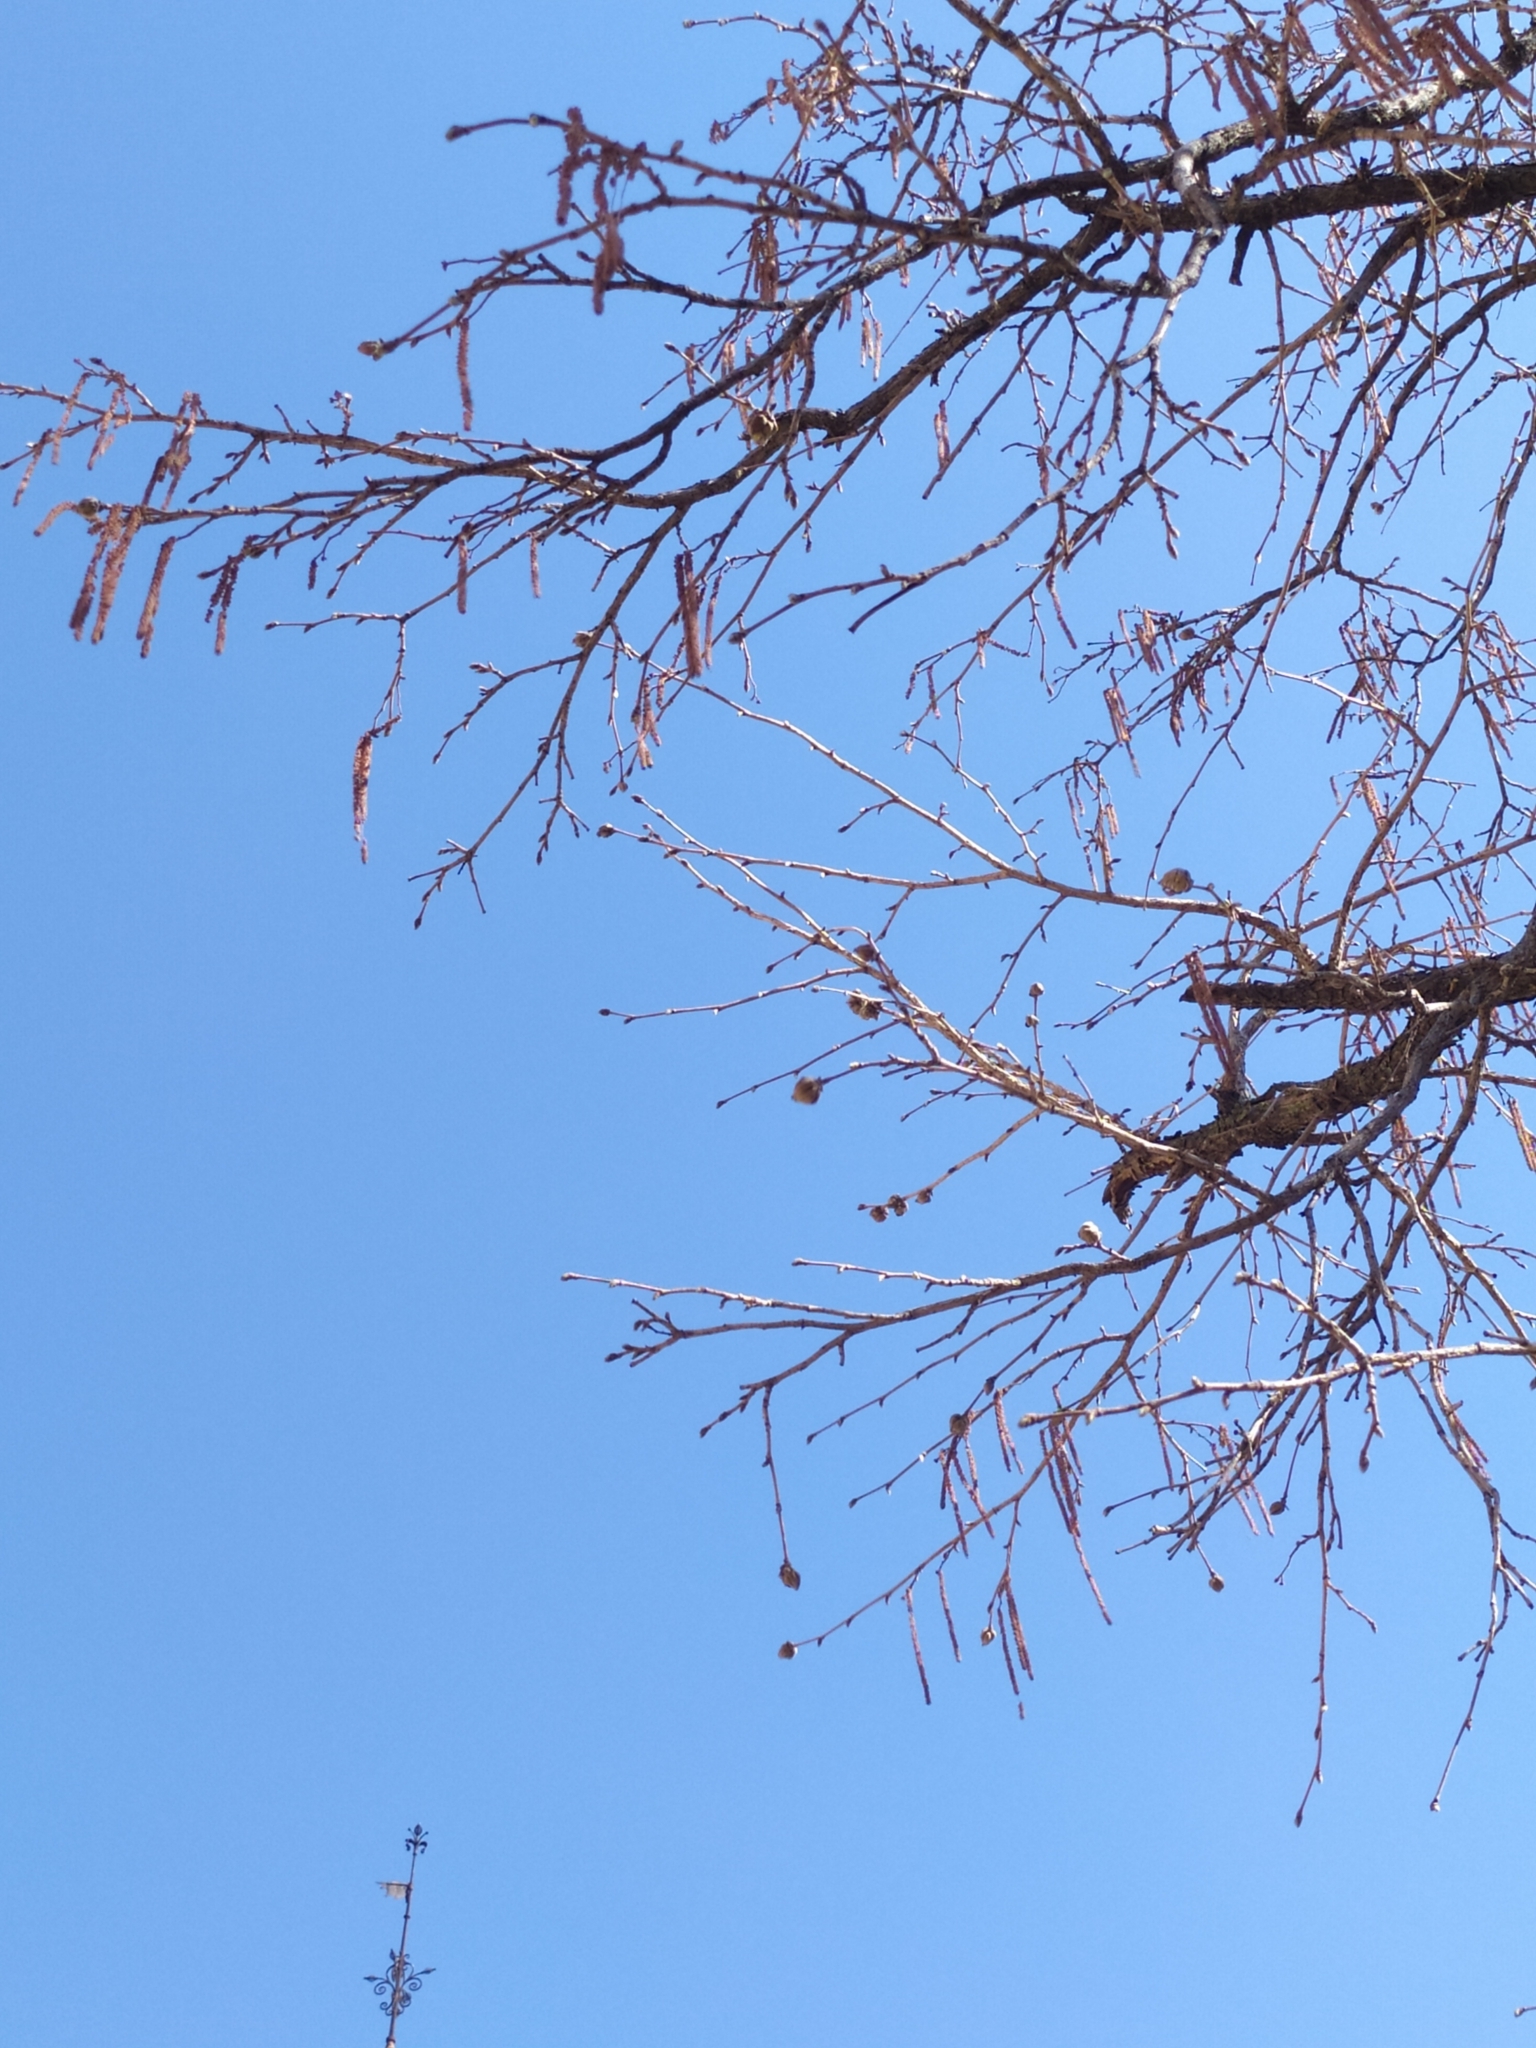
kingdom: Animalia
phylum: Arthropoda
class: Arachnida
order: Trombidiformes
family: Phytoptidae
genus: Phytoptus
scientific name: Phytoptus avellanae
